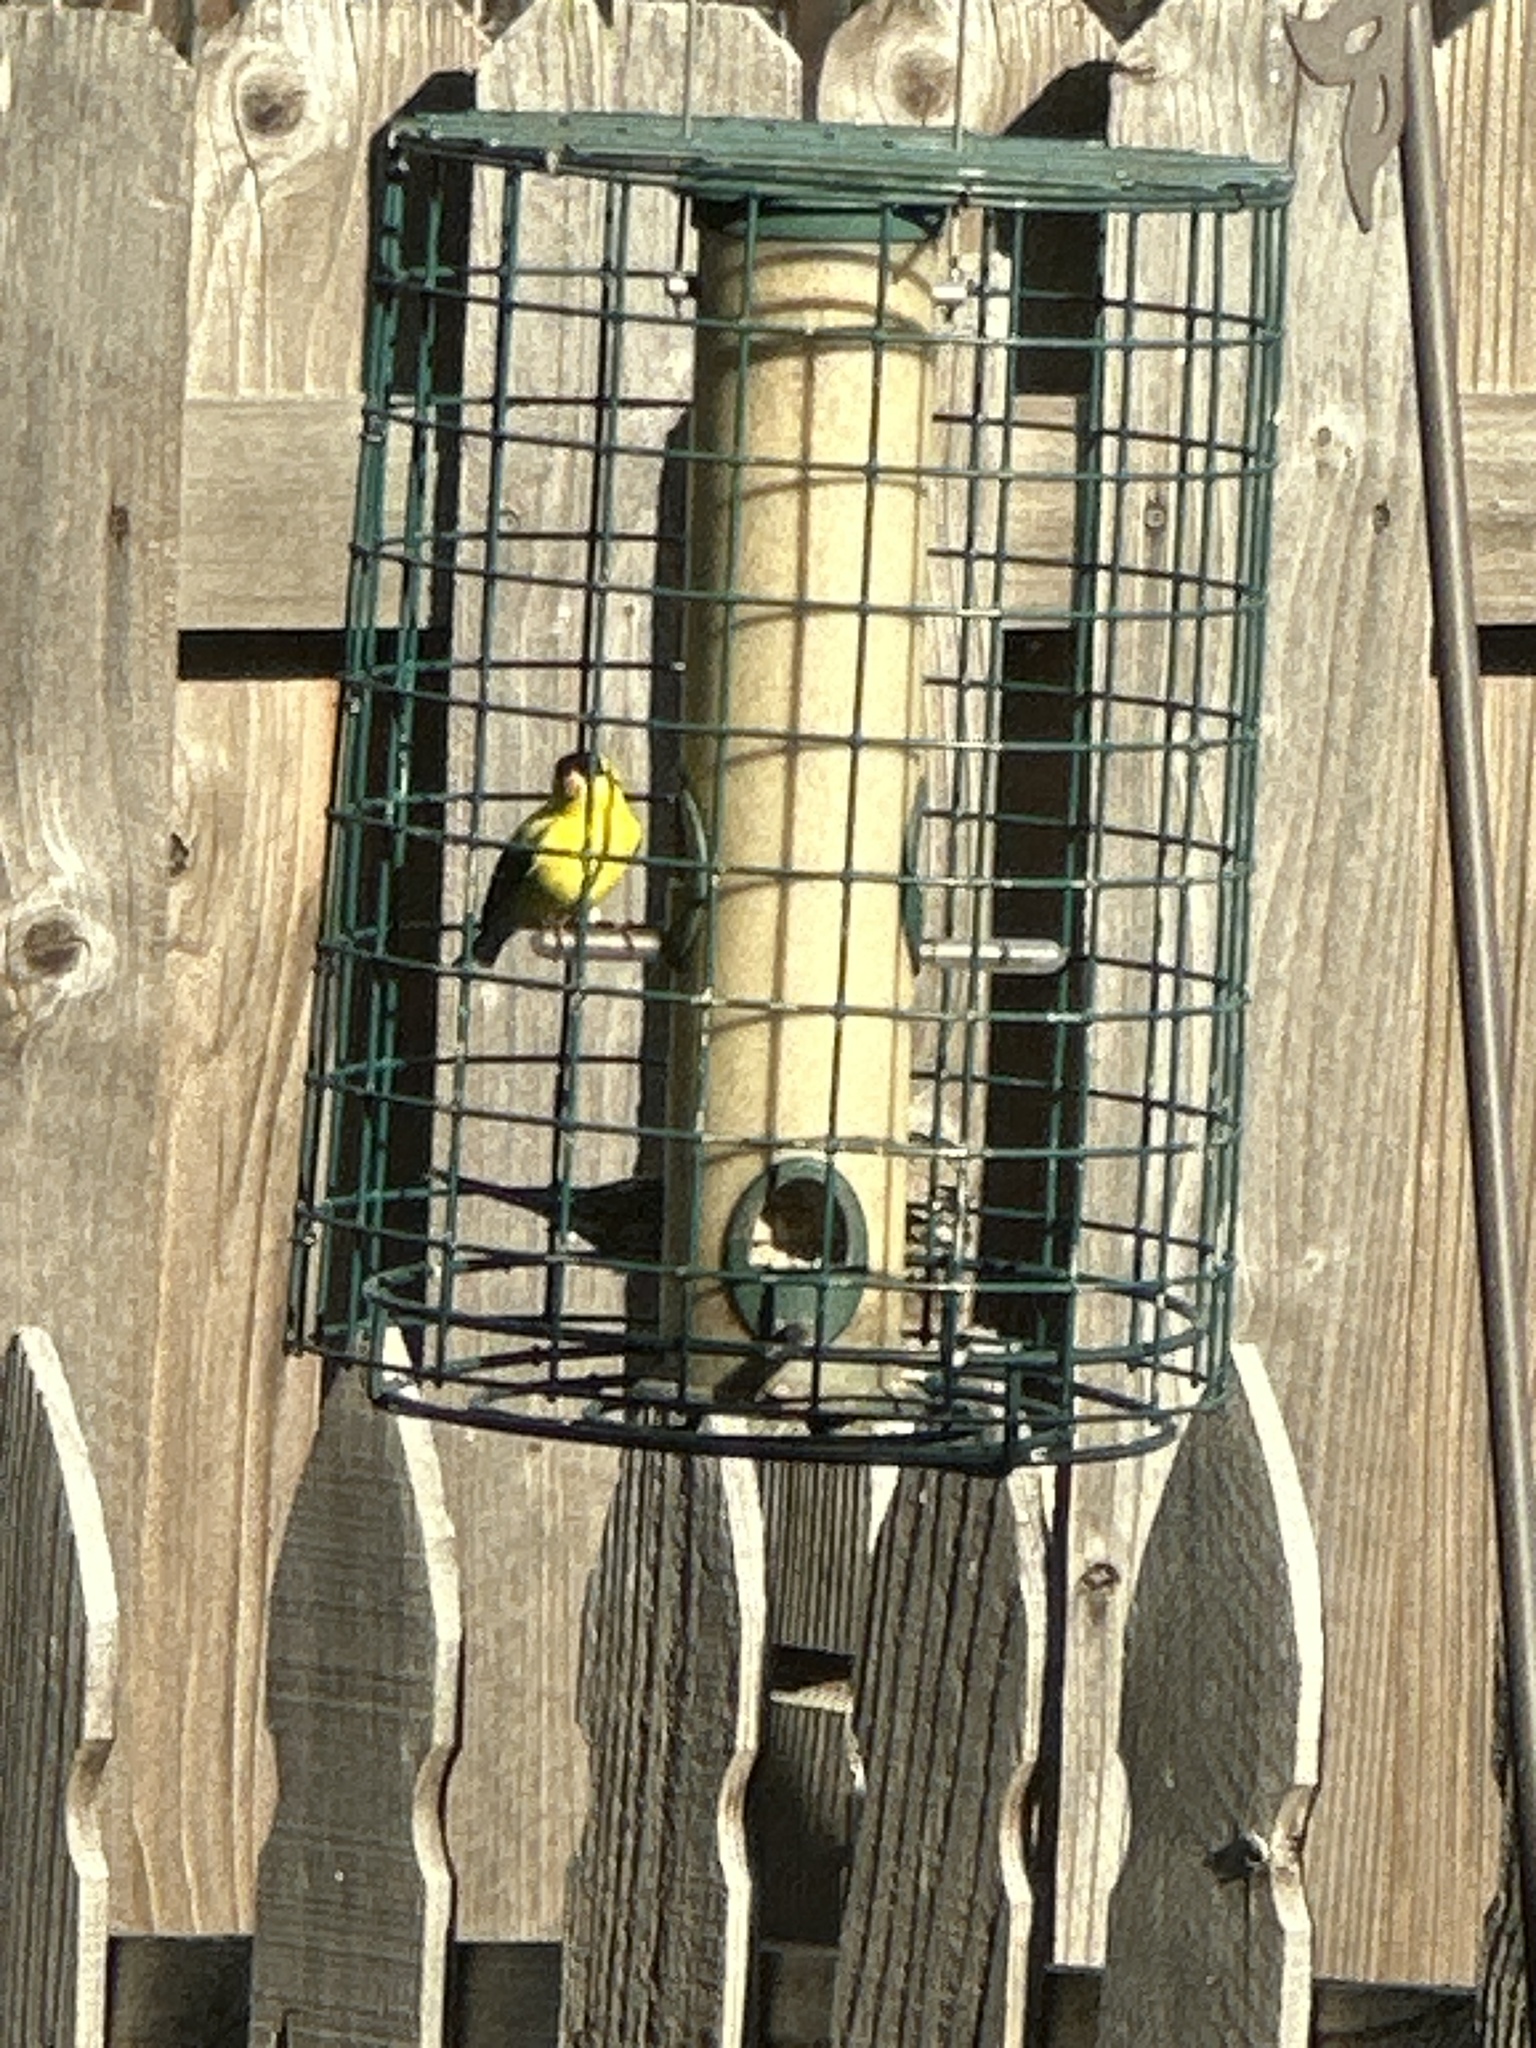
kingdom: Animalia
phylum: Chordata
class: Aves
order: Passeriformes
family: Fringillidae
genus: Spinus
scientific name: Spinus tristis
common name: American goldfinch
